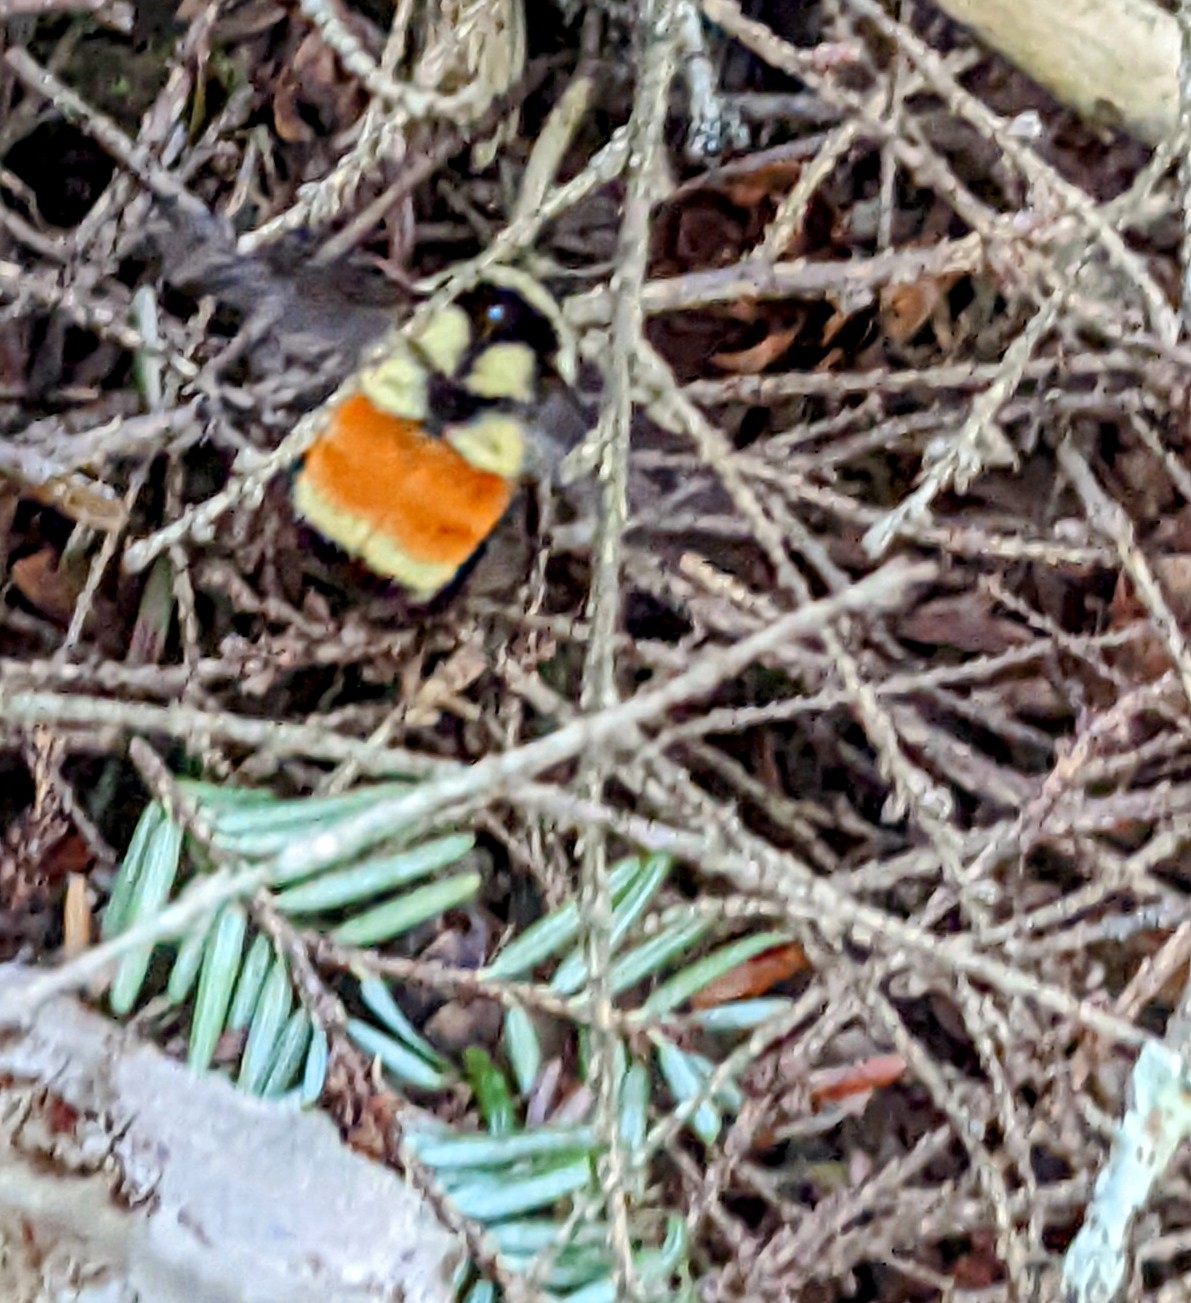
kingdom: Animalia
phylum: Arthropoda
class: Insecta
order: Hymenoptera
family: Apidae
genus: Bombus
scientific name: Bombus ternarius
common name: Tri-colored bumble bee
